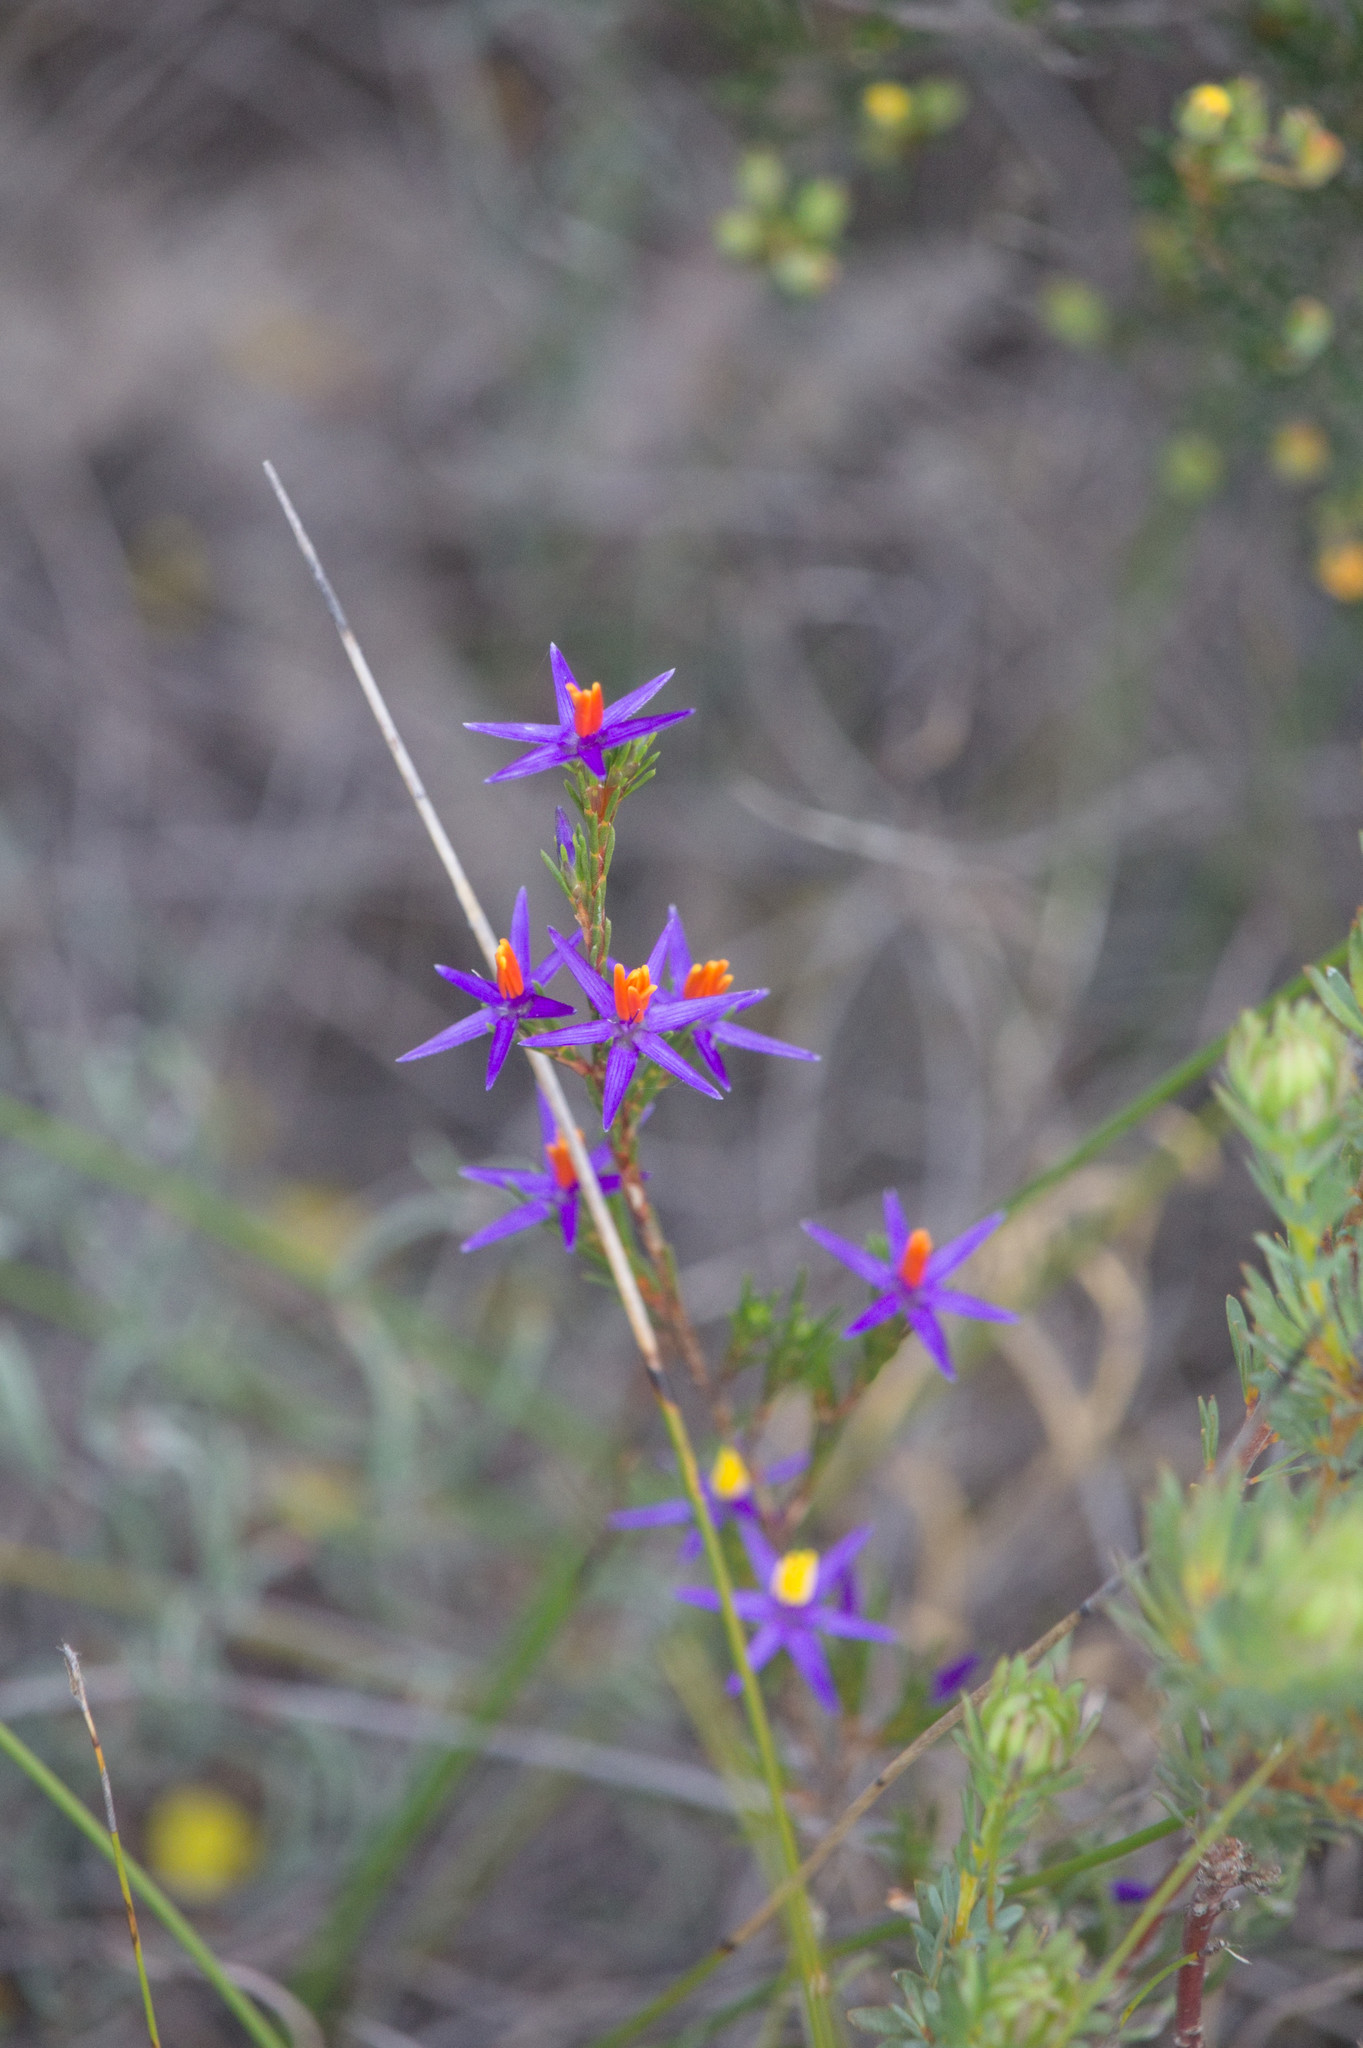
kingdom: Plantae
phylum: Tracheophyta
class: Liliopsida
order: Arecales
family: Dasypogonaceae
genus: Calectasia
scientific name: Calectasia gracilis
